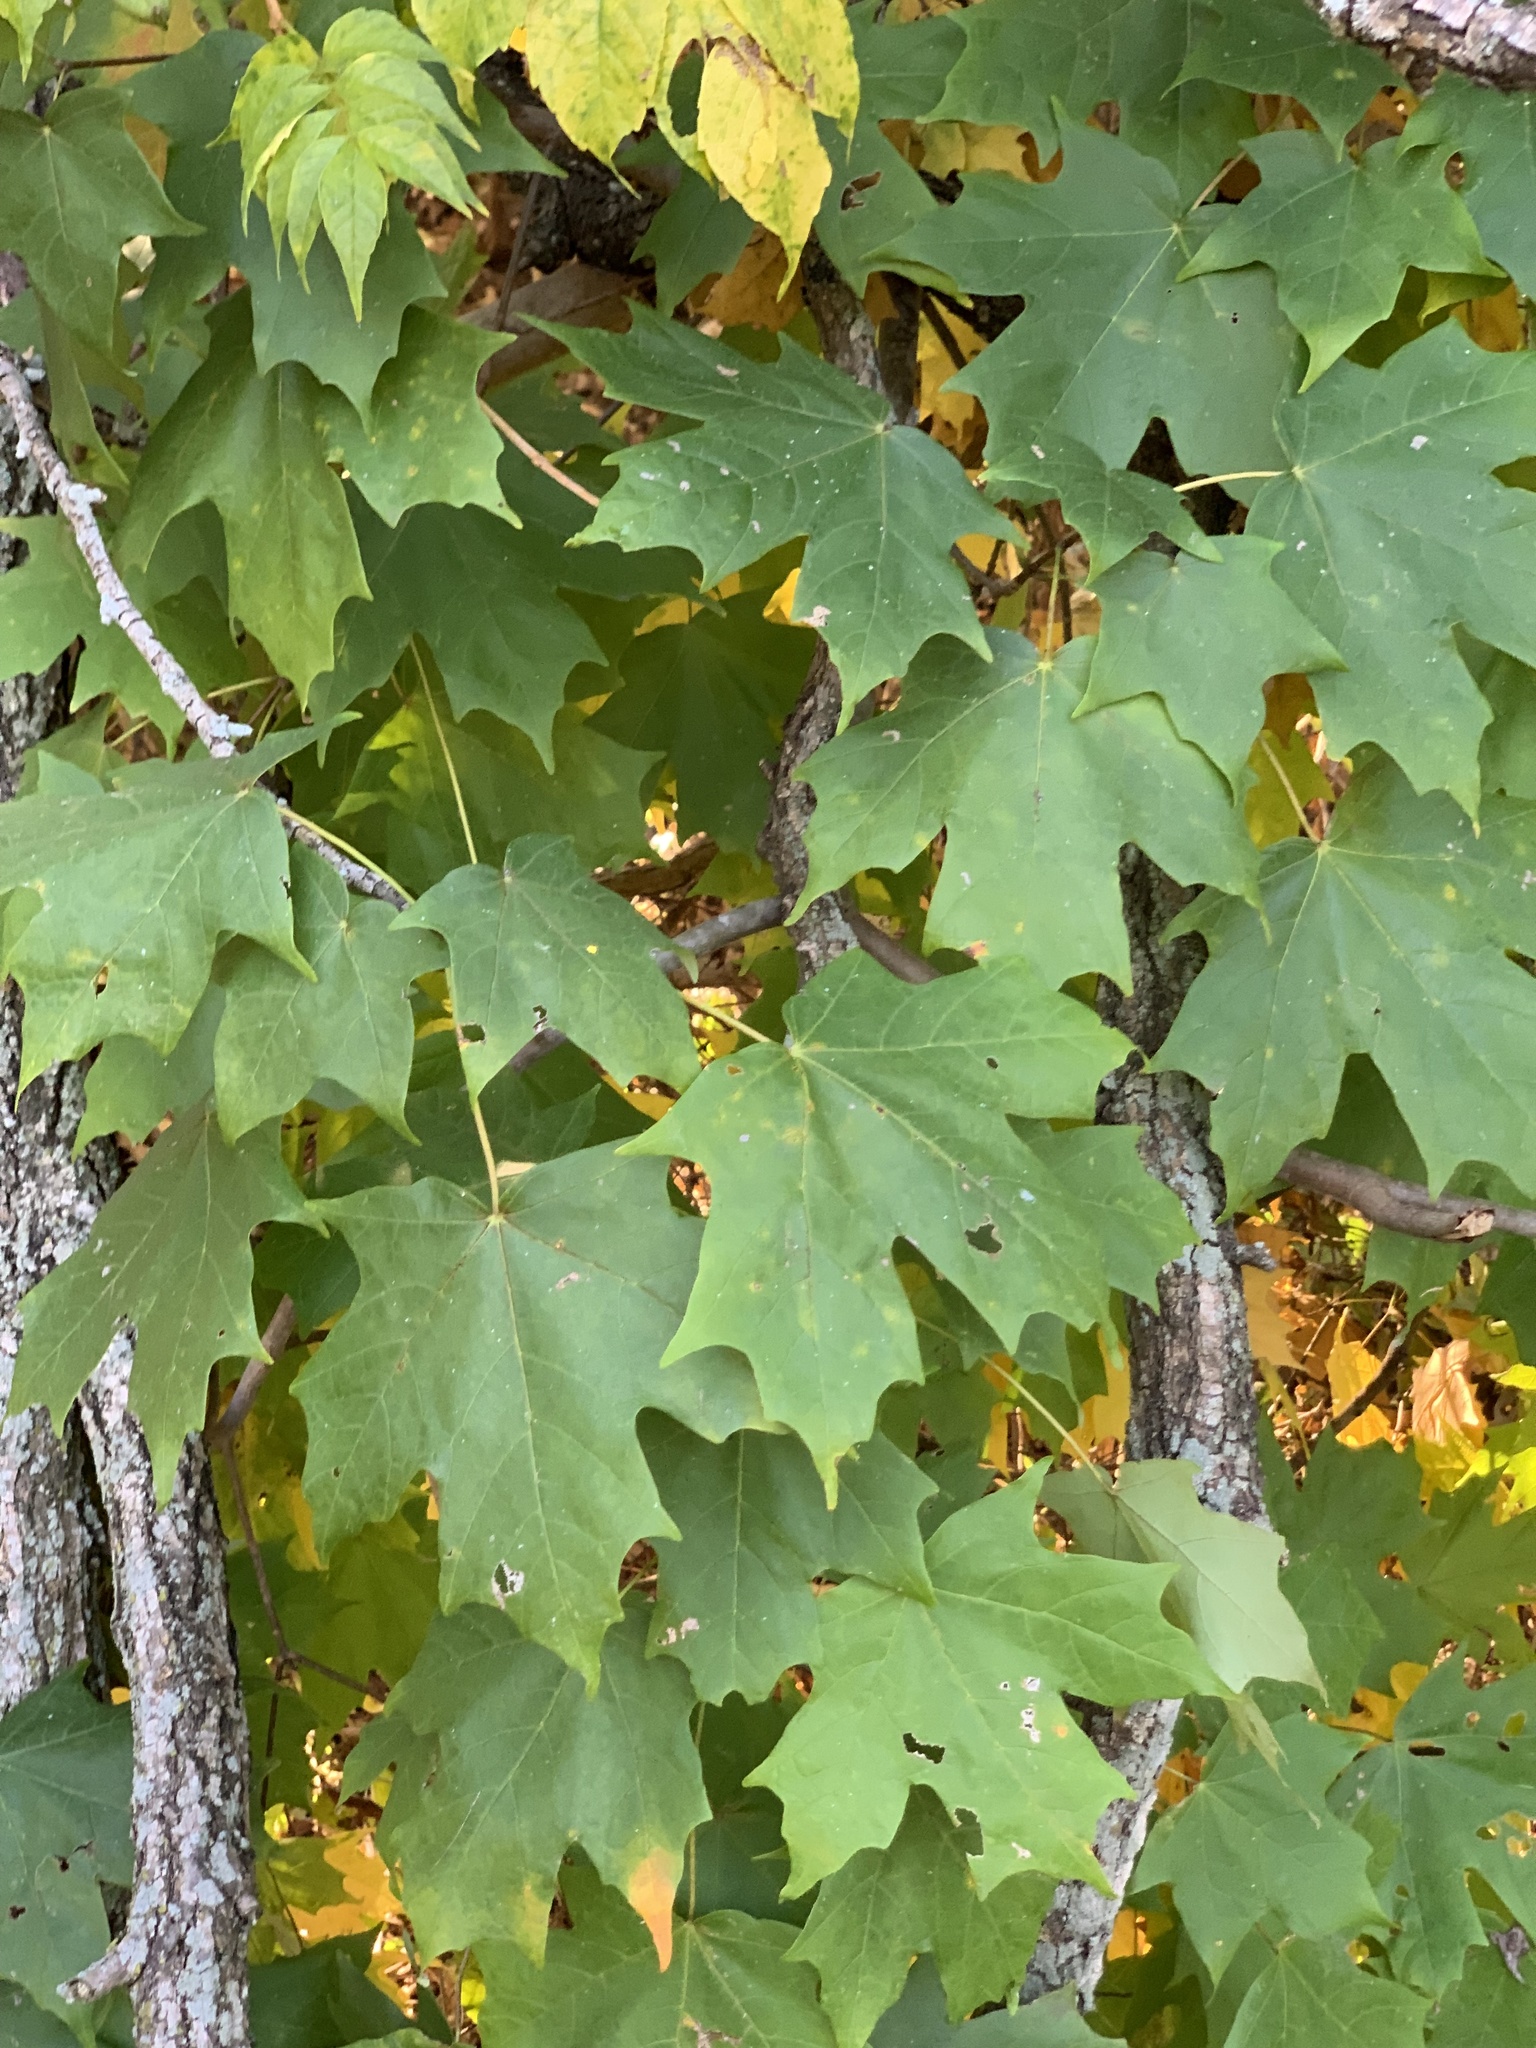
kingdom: Plantae
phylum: Tracheophyta
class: Magnoliopsida
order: Sapindales
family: Sapindaceae
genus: Acer
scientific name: Acer saccharum
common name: Sugar maple
